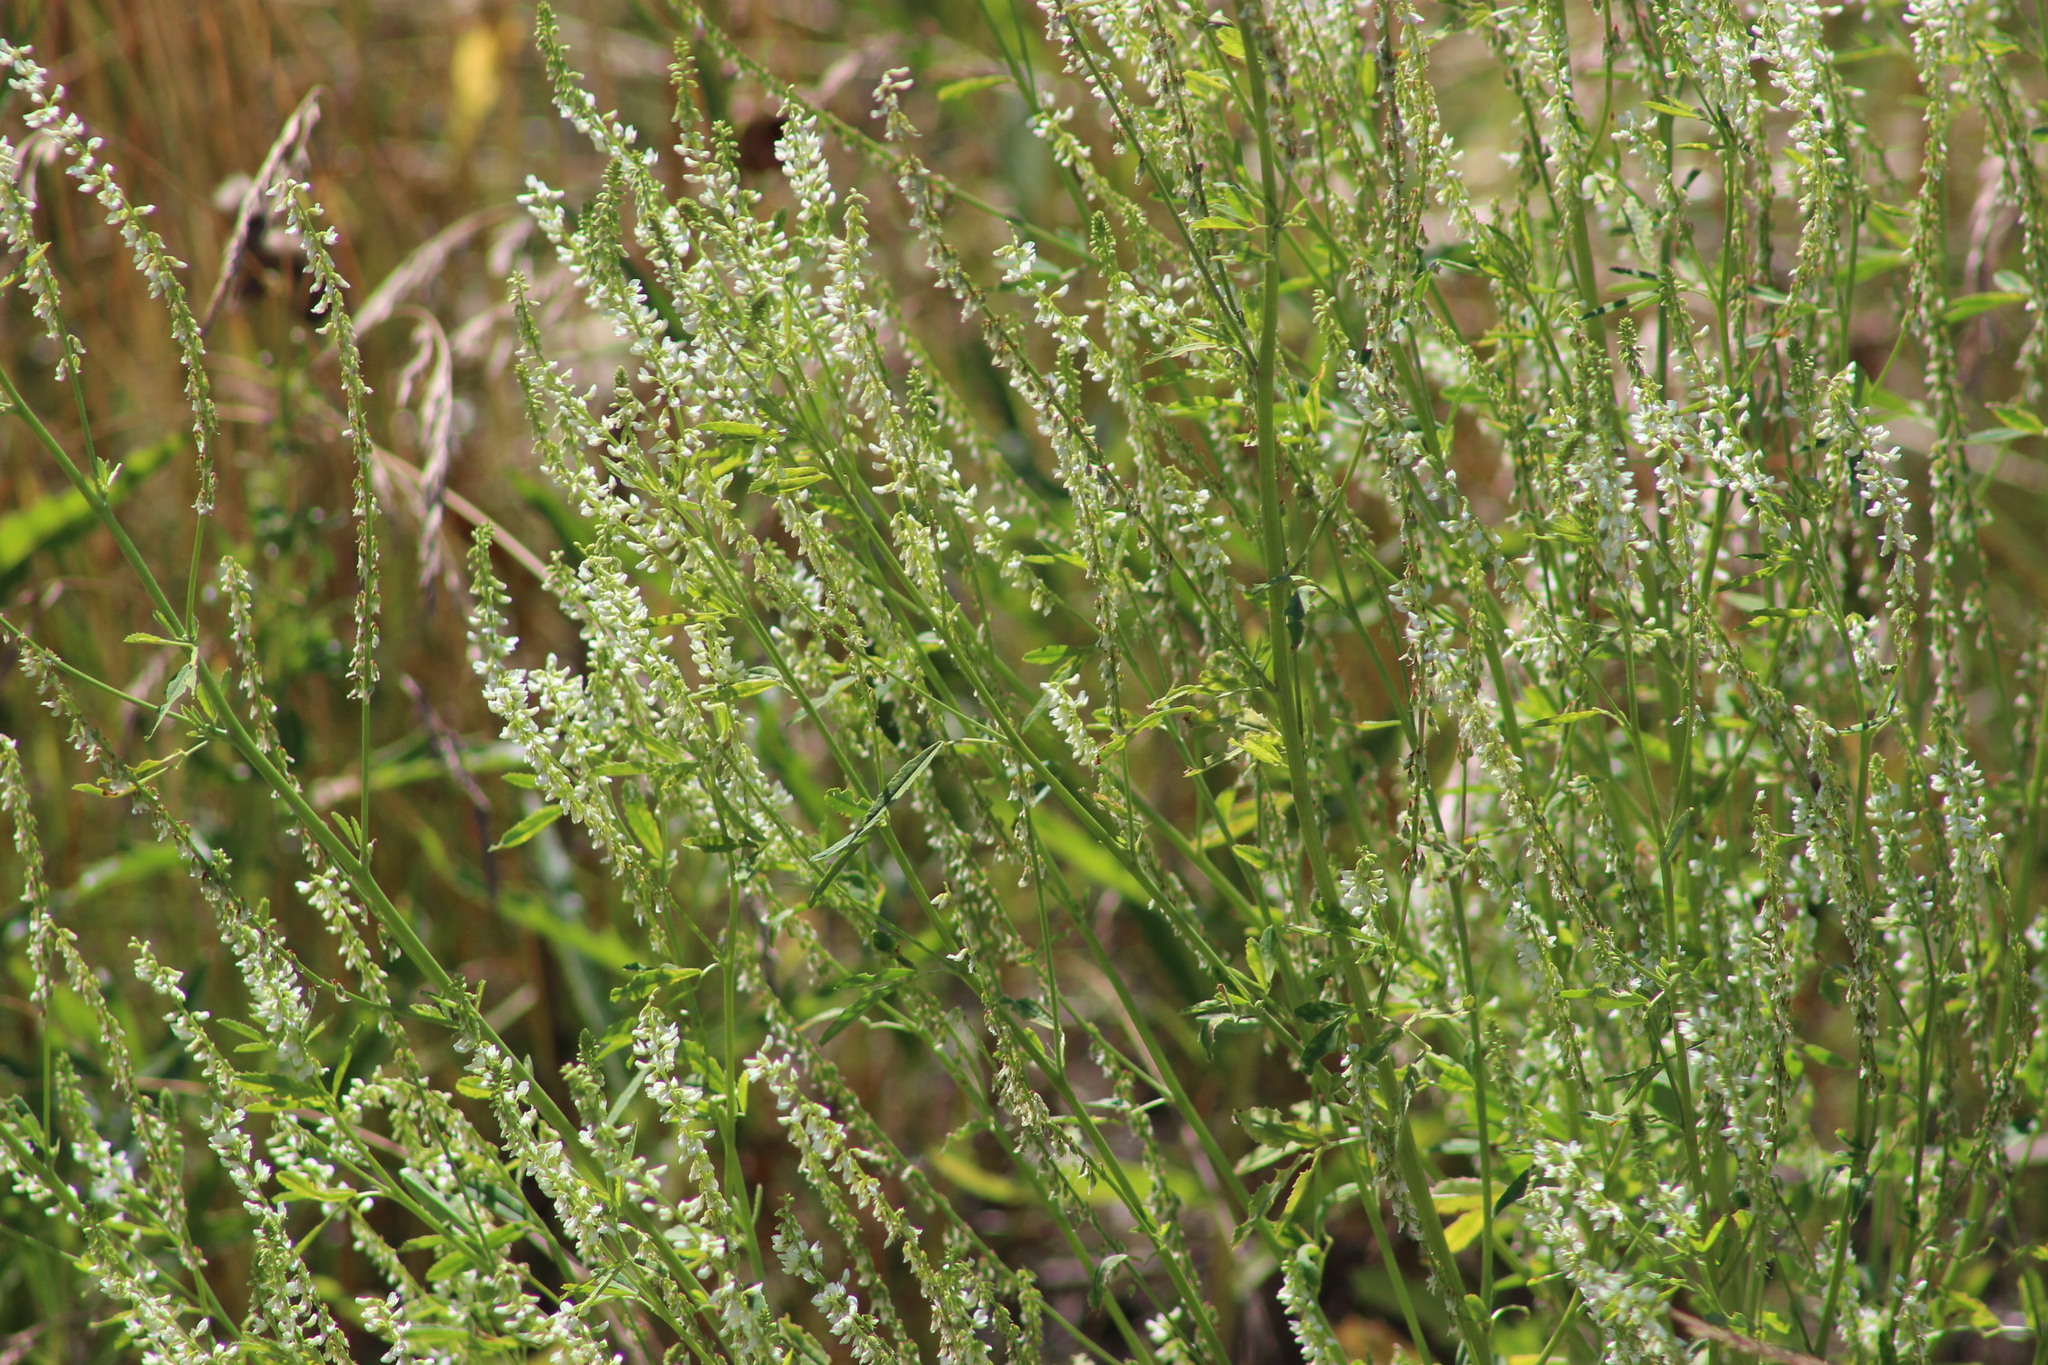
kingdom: Plantae
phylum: Tracheophyta
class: Magnoliopsida
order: Fabales
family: Fabaceae
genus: Melilotus
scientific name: Melilotus albus
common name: White melilot
